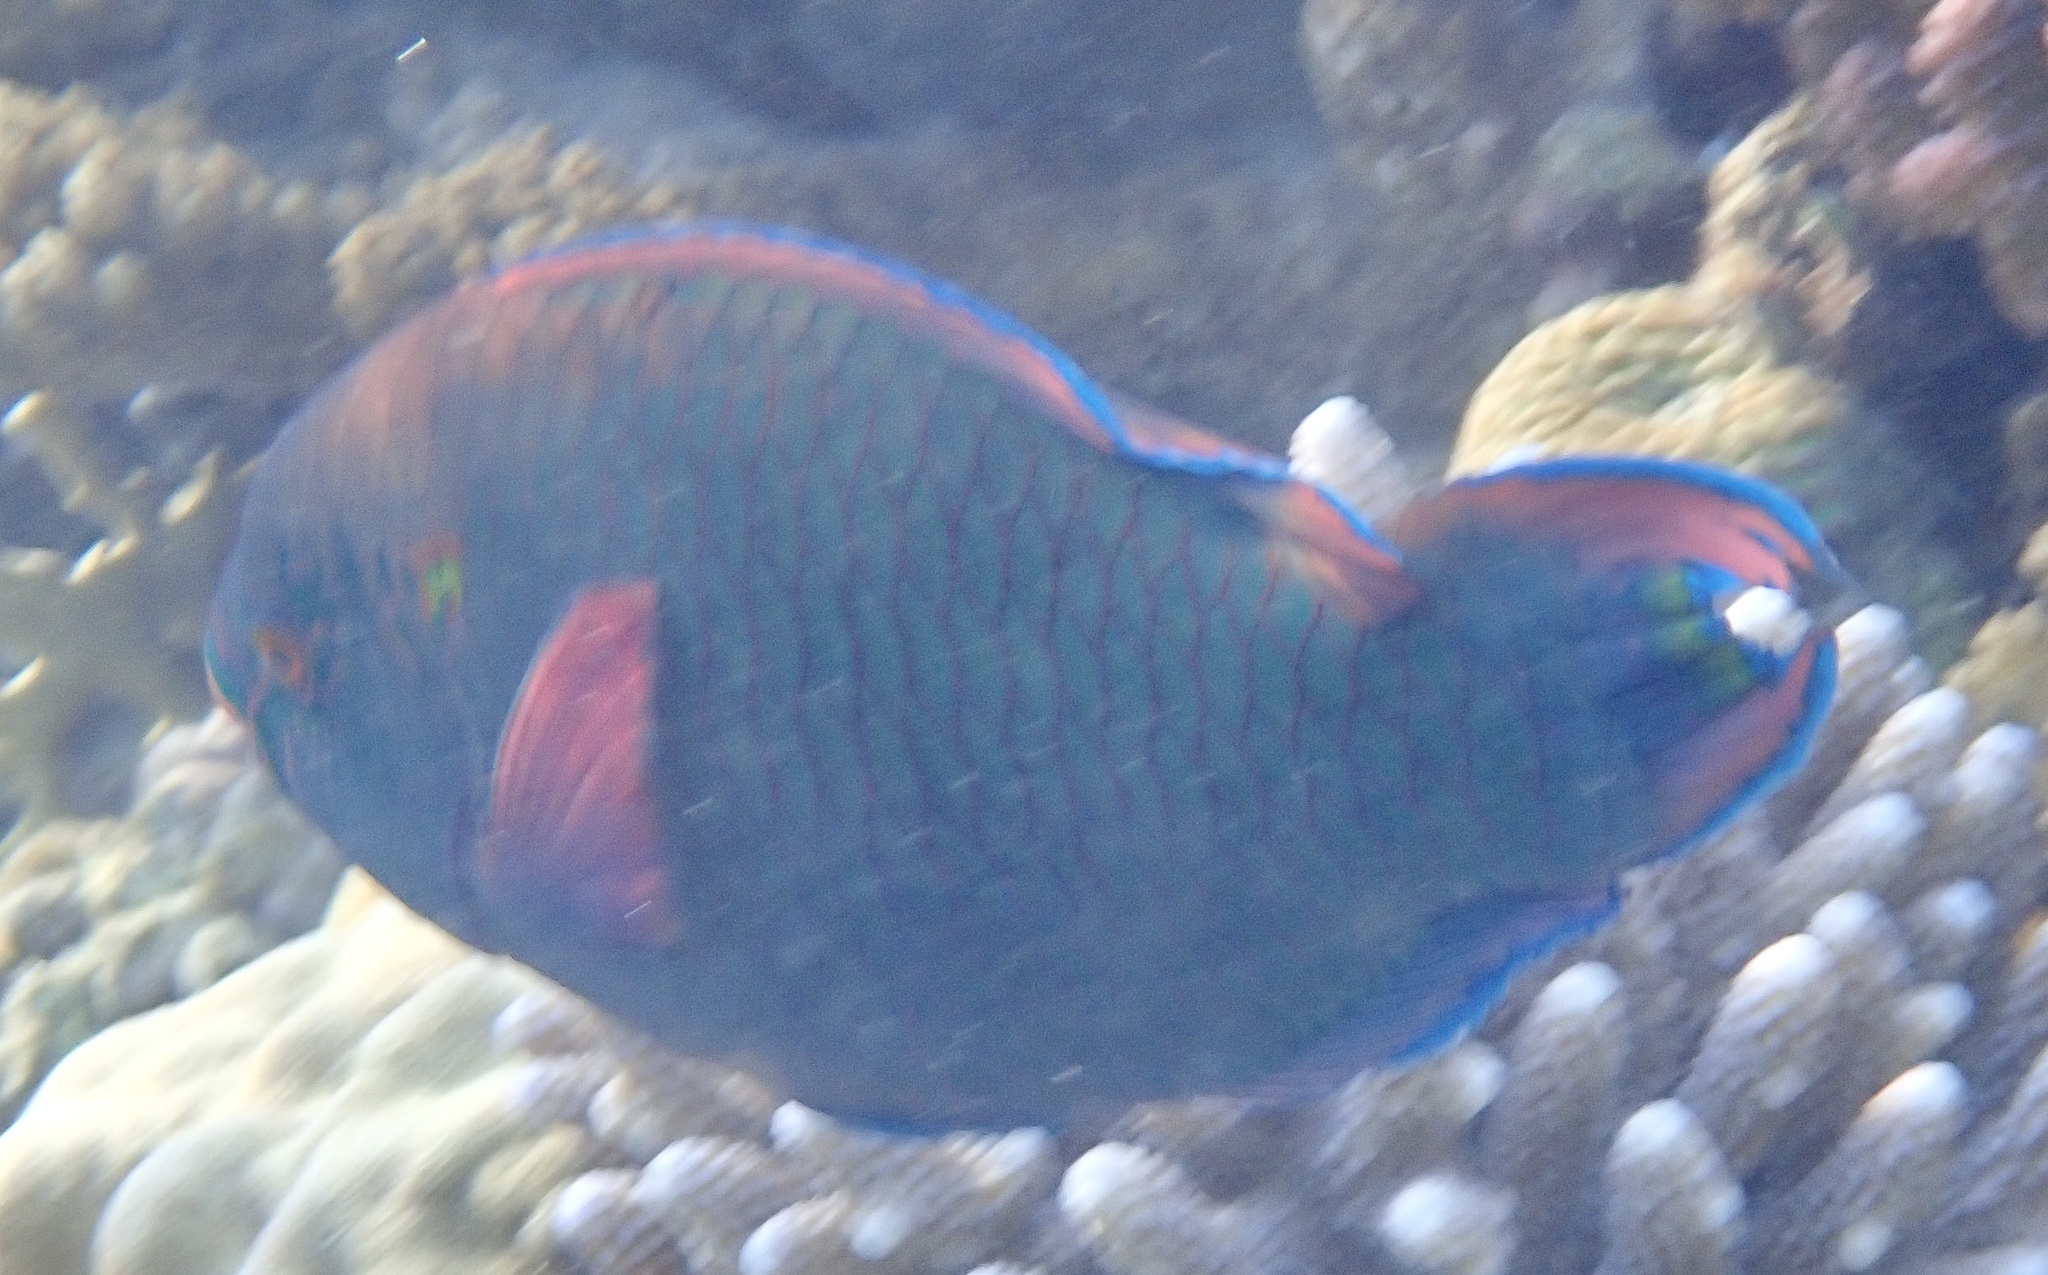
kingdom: Animalia
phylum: Chordata
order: Perciformes
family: Scaridae
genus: Scarus
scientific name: Scarus niger
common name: Dusky parrotfish
